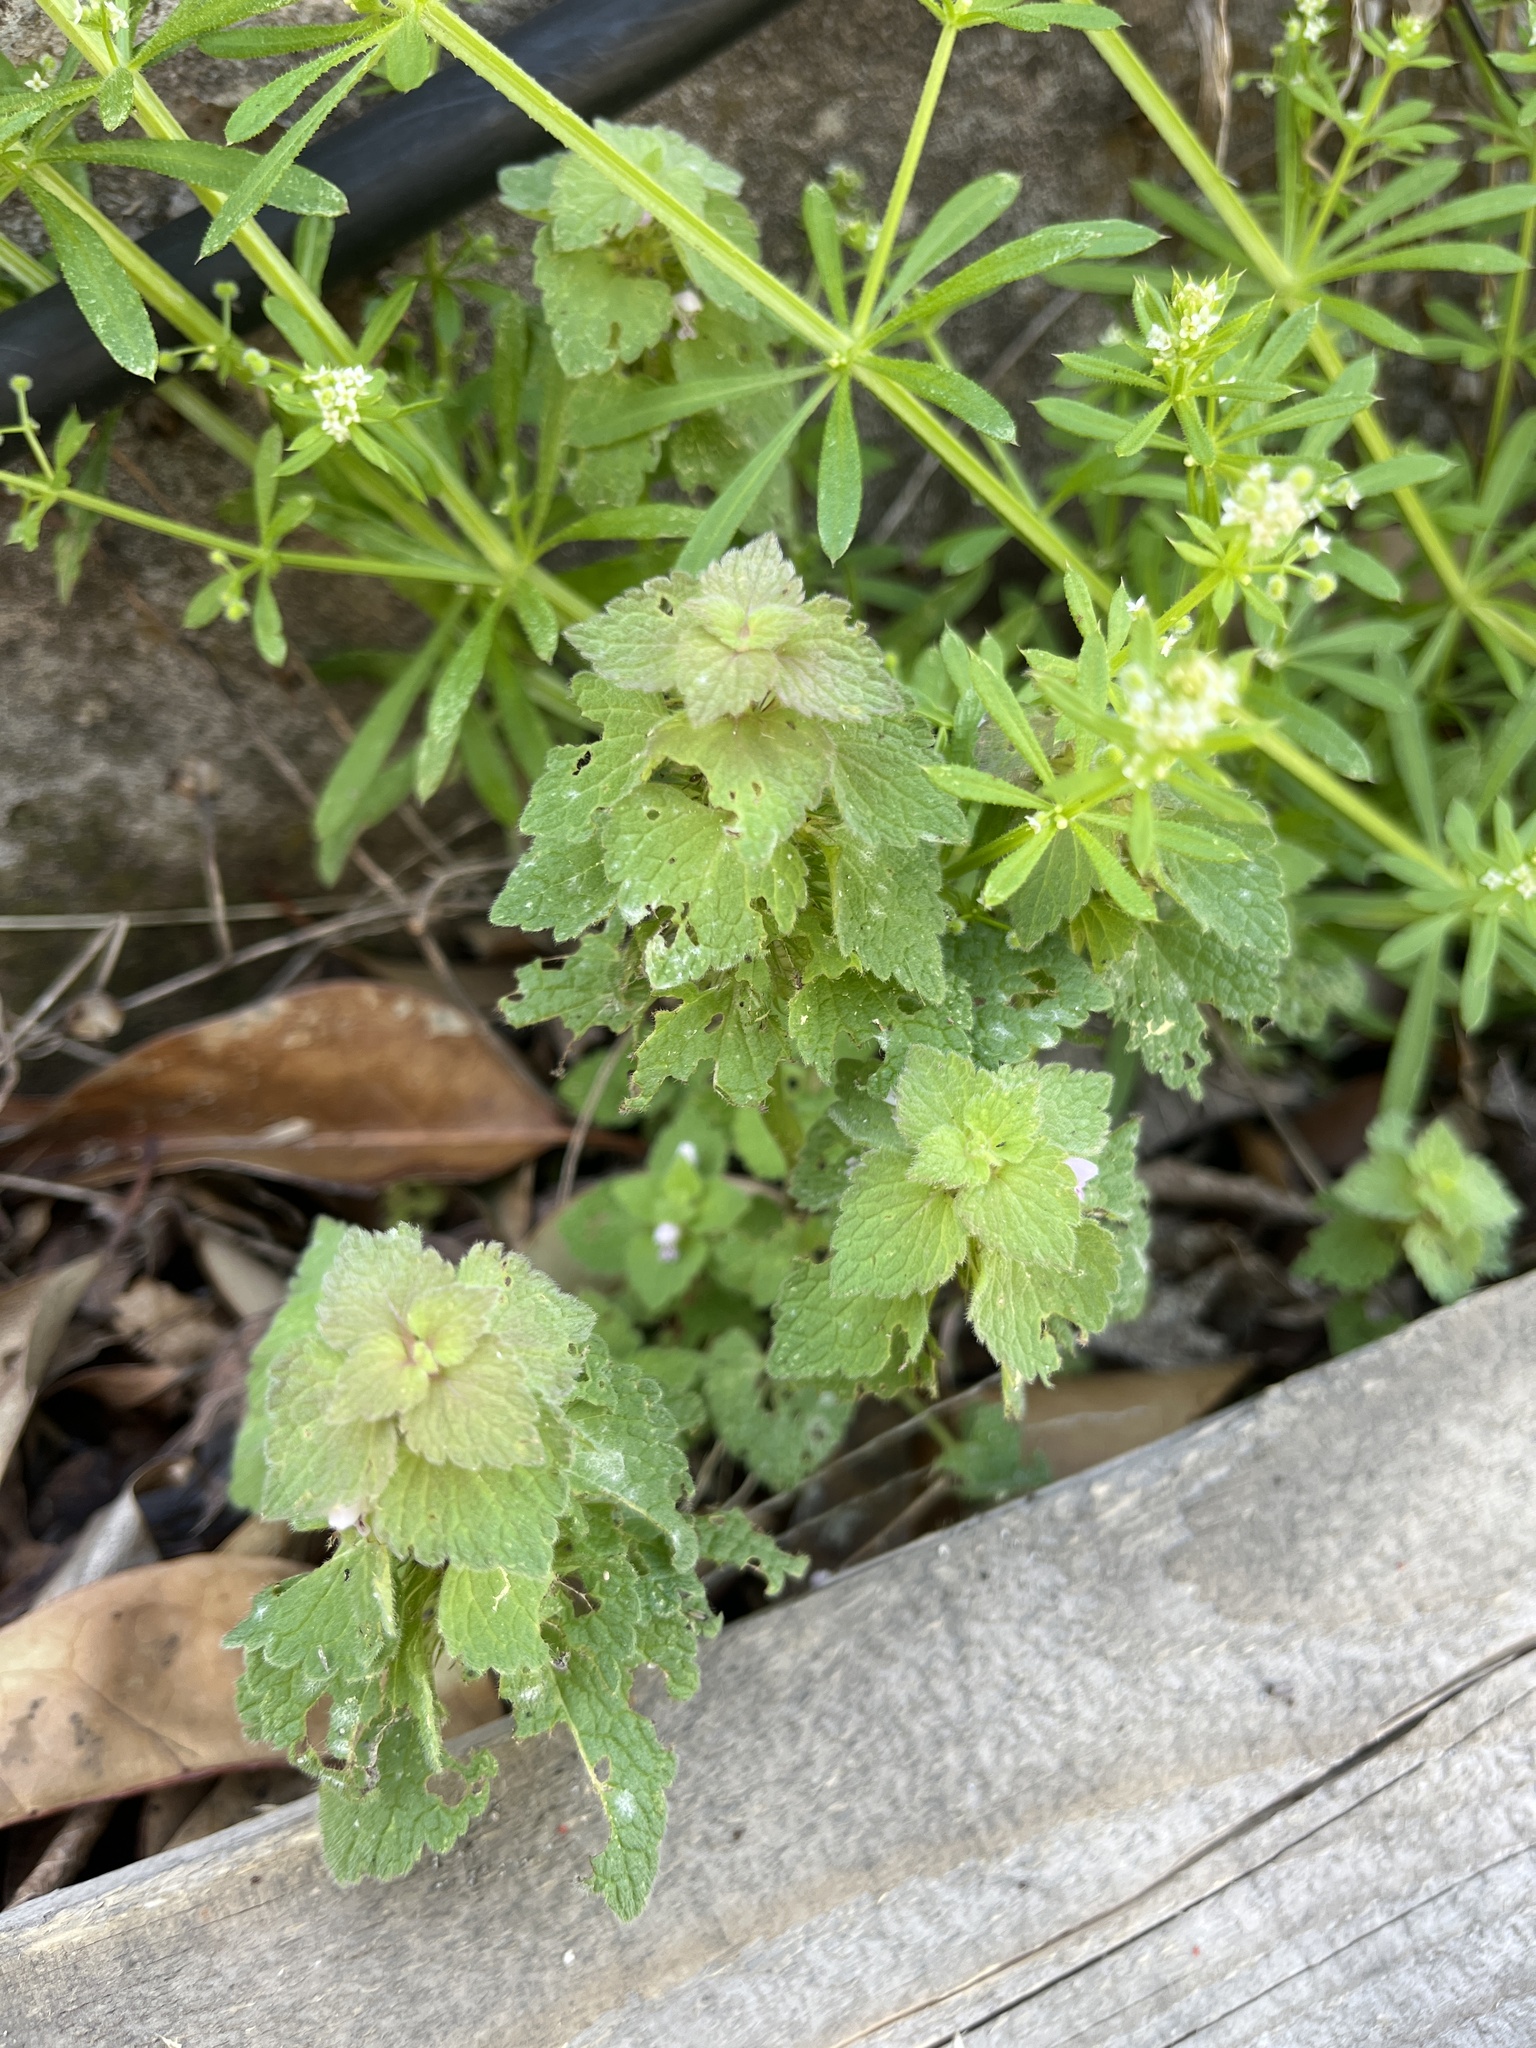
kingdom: Plantae
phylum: Tracheophyta
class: Magnoliopsida
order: Lamiales
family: Lamiaceae
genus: Lamium
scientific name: Lamium purpureum
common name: Red dead-nettle
